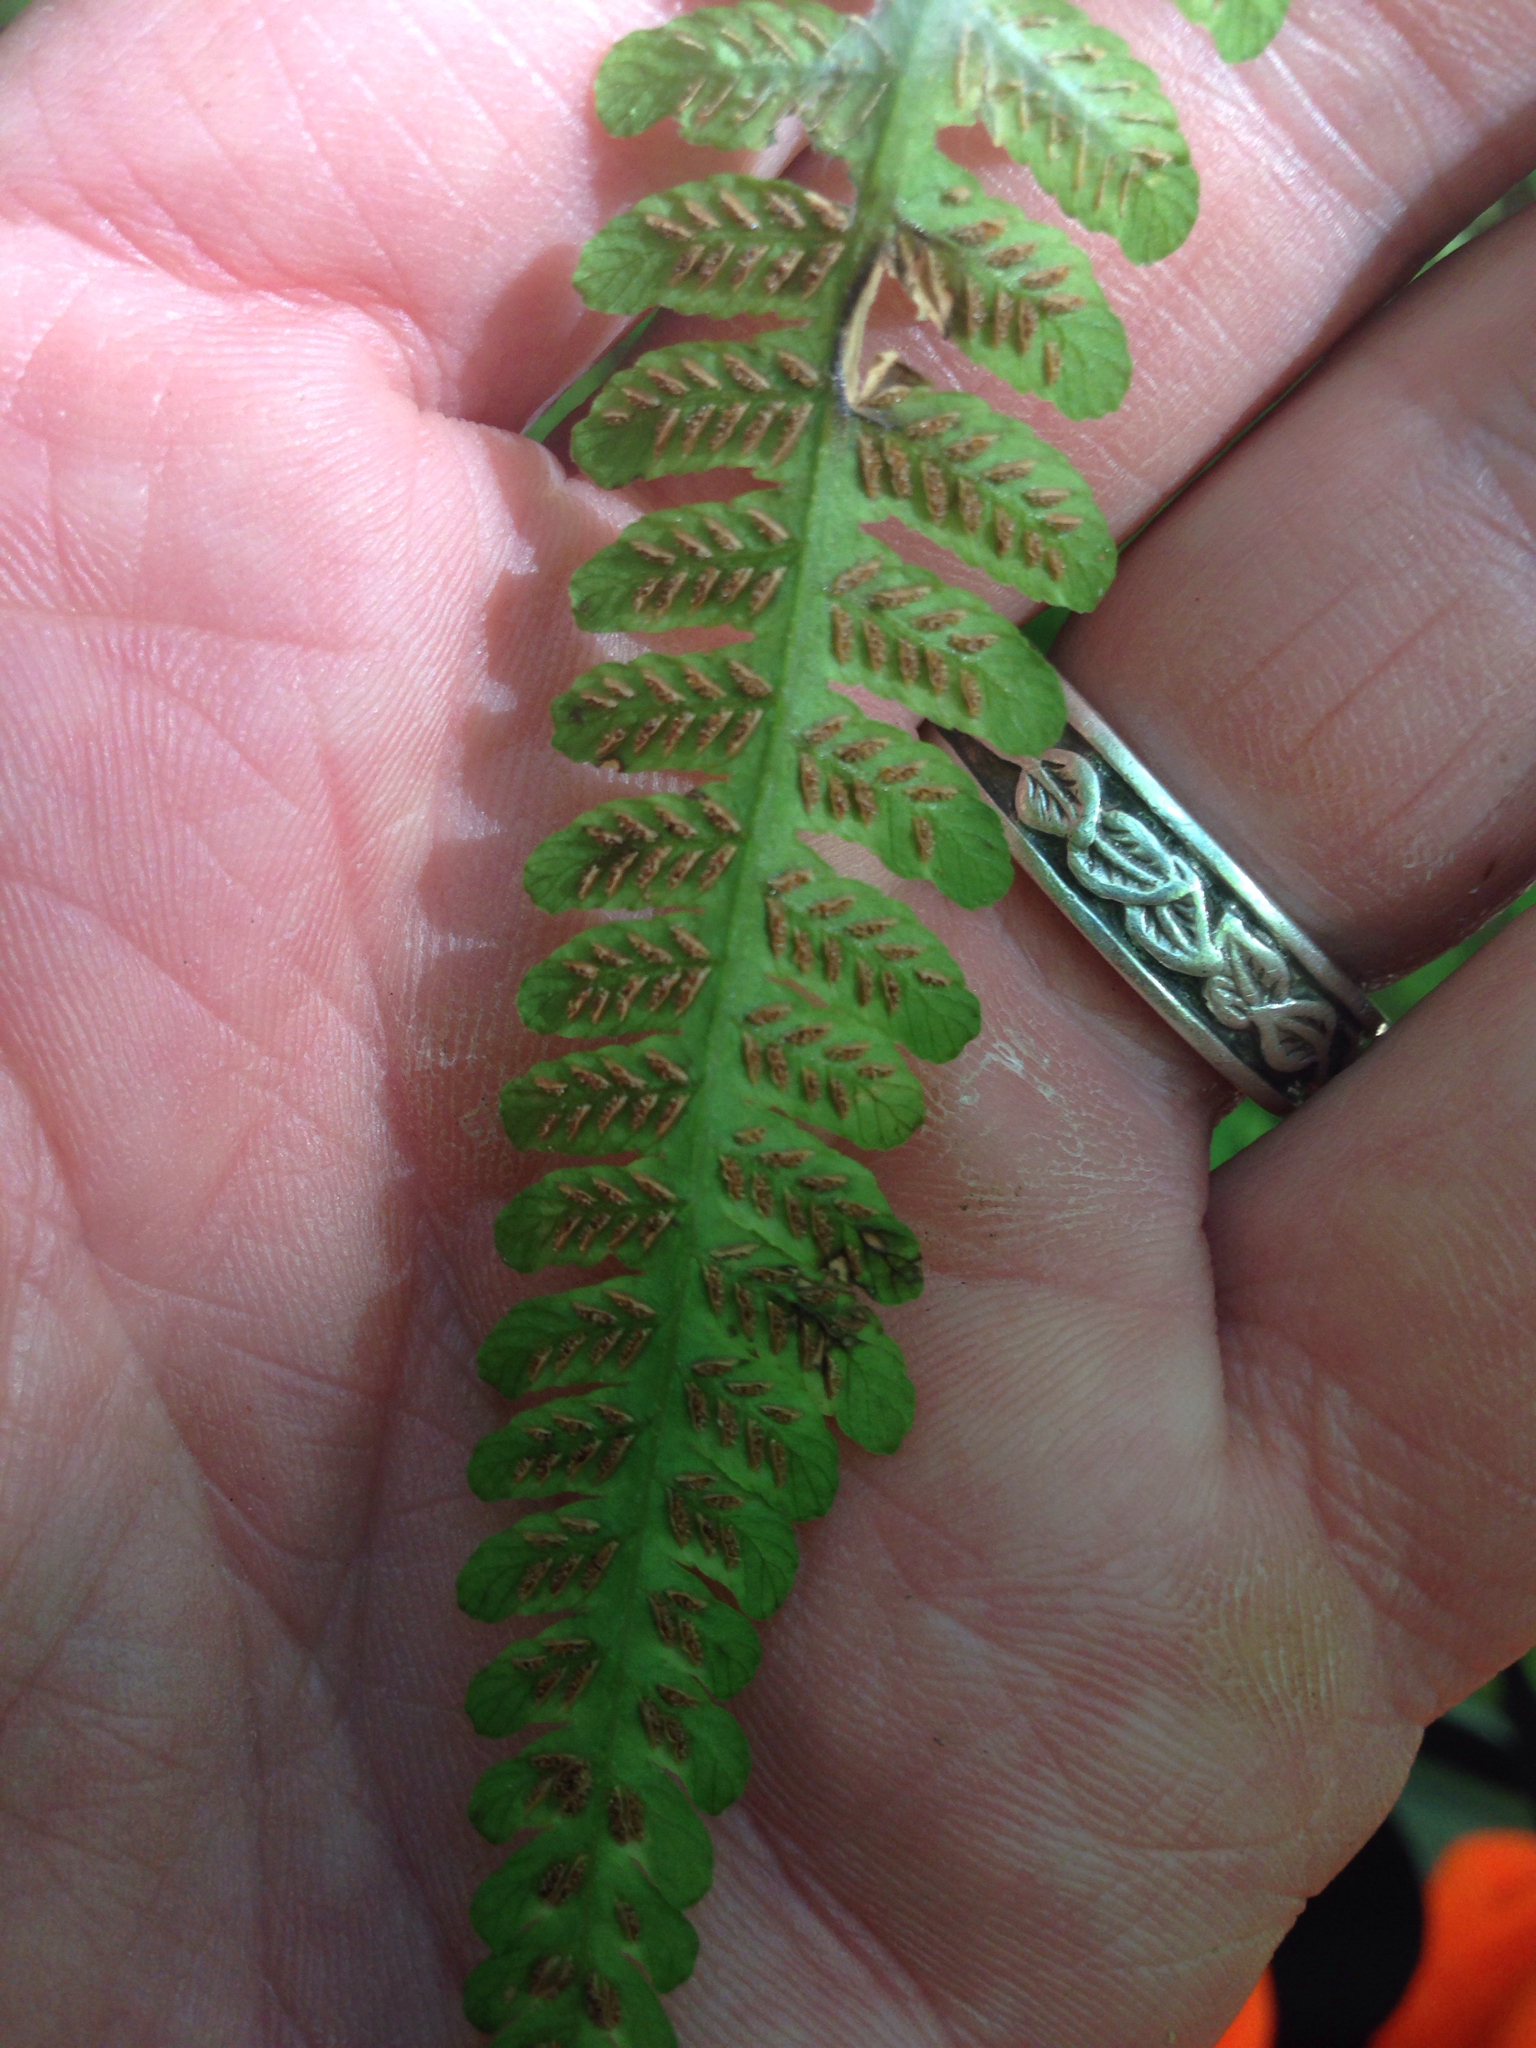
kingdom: Plantae
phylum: Tracheophyta
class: Polypodiopsida
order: Polypodiales
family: Athyriaceae
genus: Deparia
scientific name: Deparia acrostichoides
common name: Silver false spleenwort
